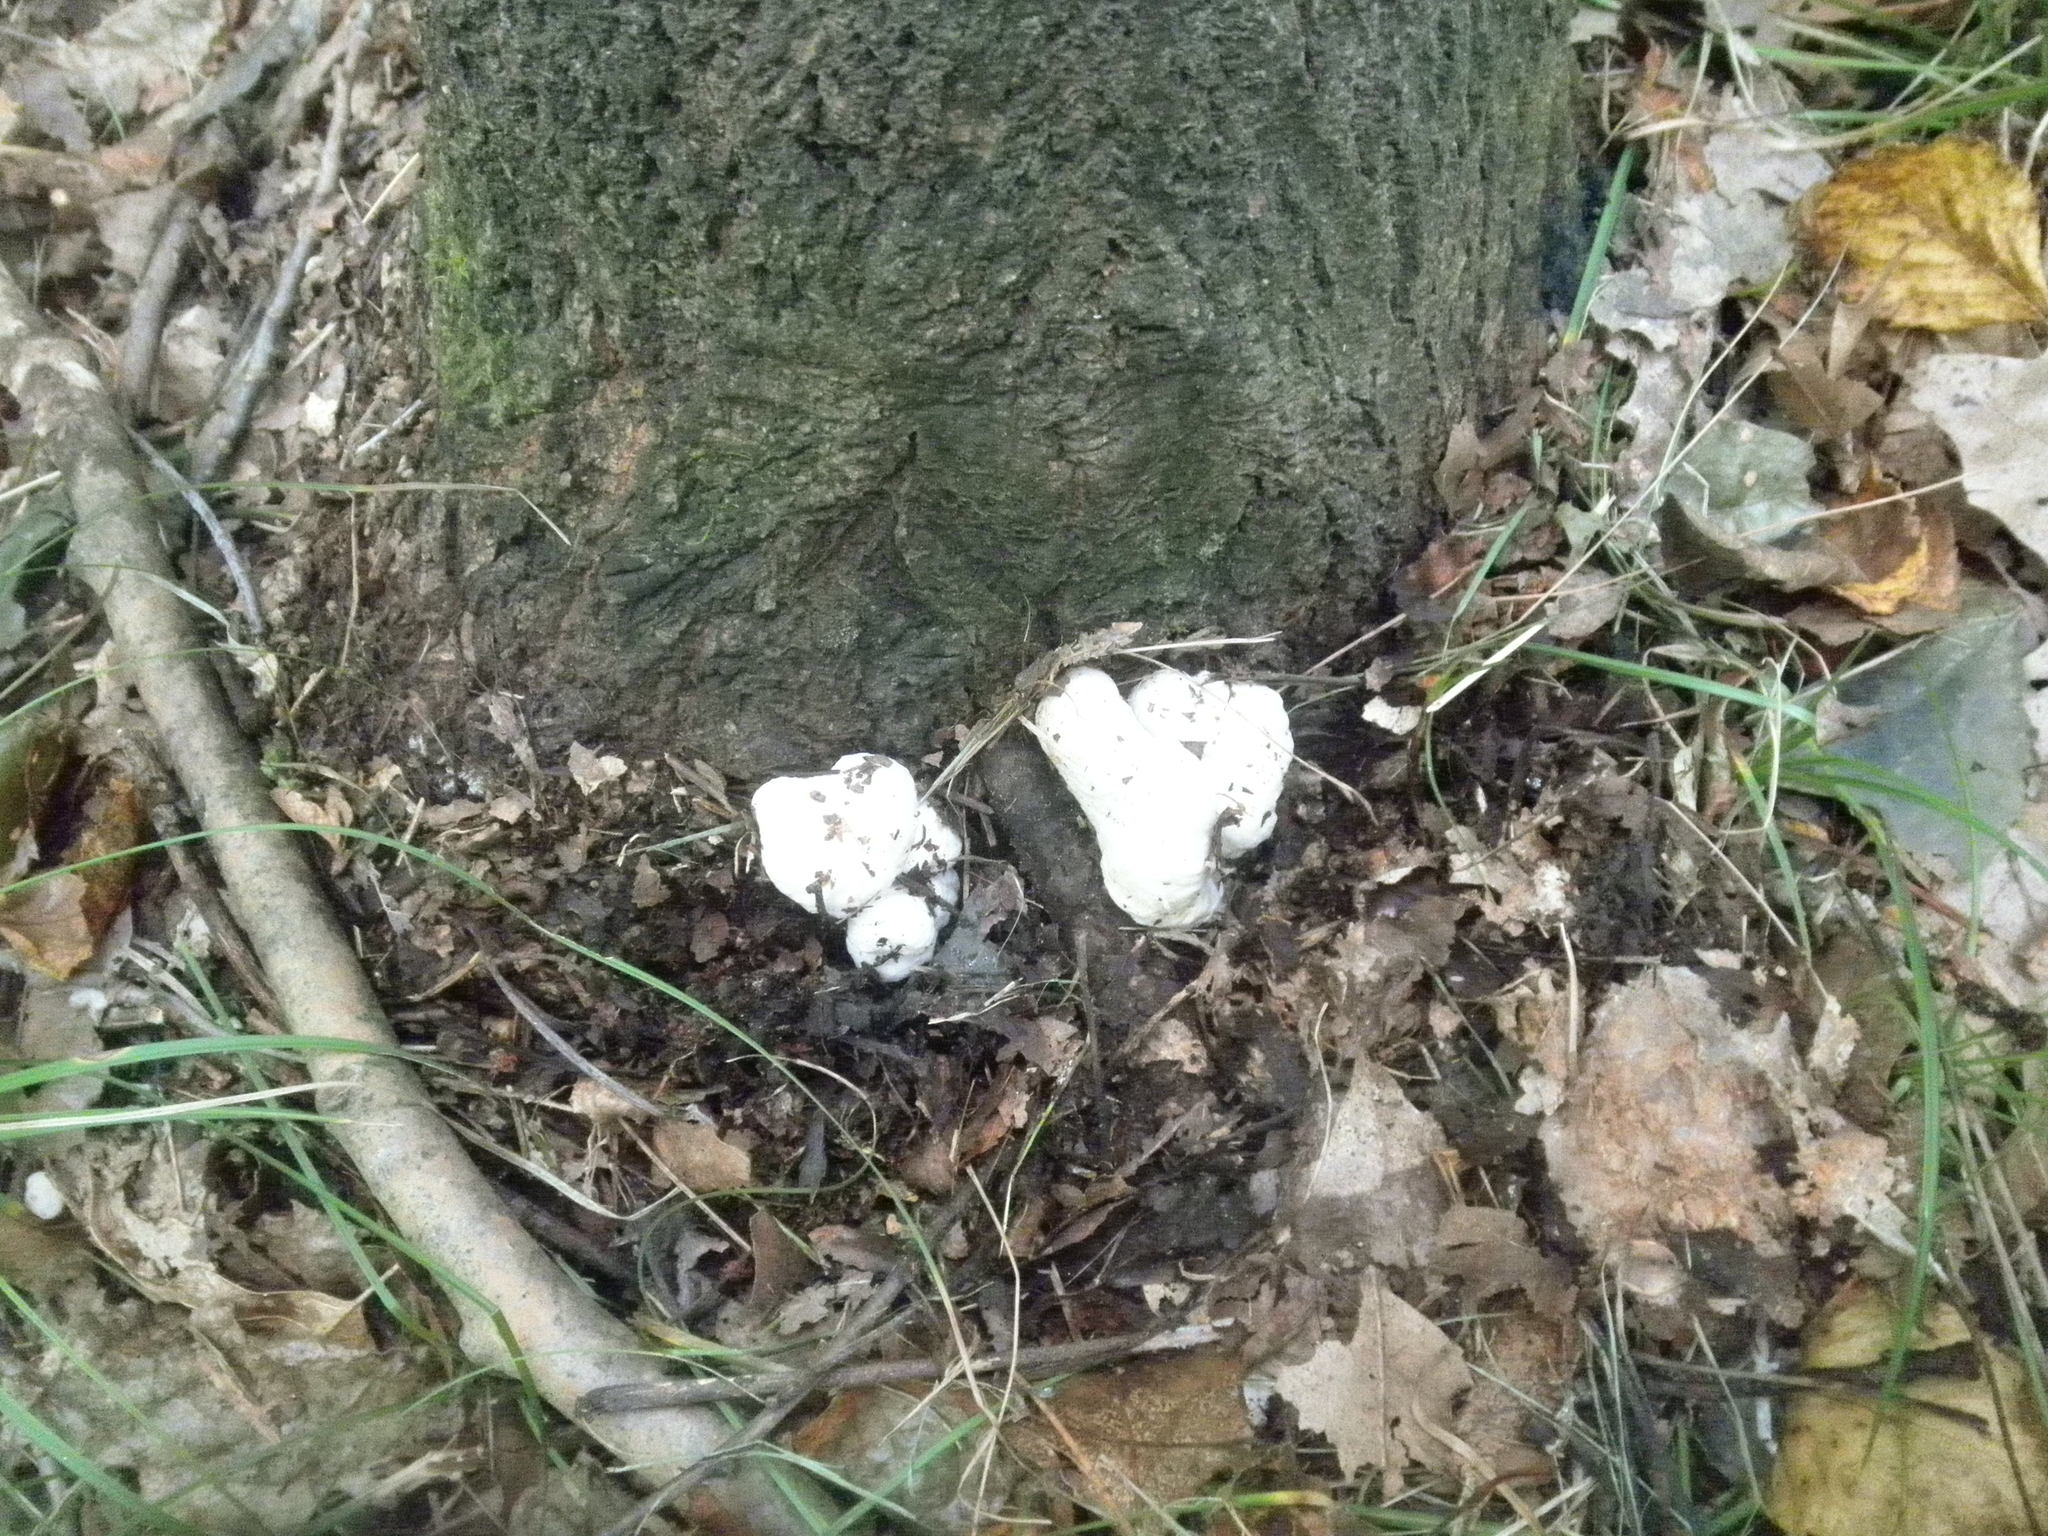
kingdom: Fungi
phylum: Basidiomycota
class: Agaricomycetes
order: Agaricales
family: Entolomataceae
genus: Entoloma
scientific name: Entoloma abortivum
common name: Aborted entoloma
